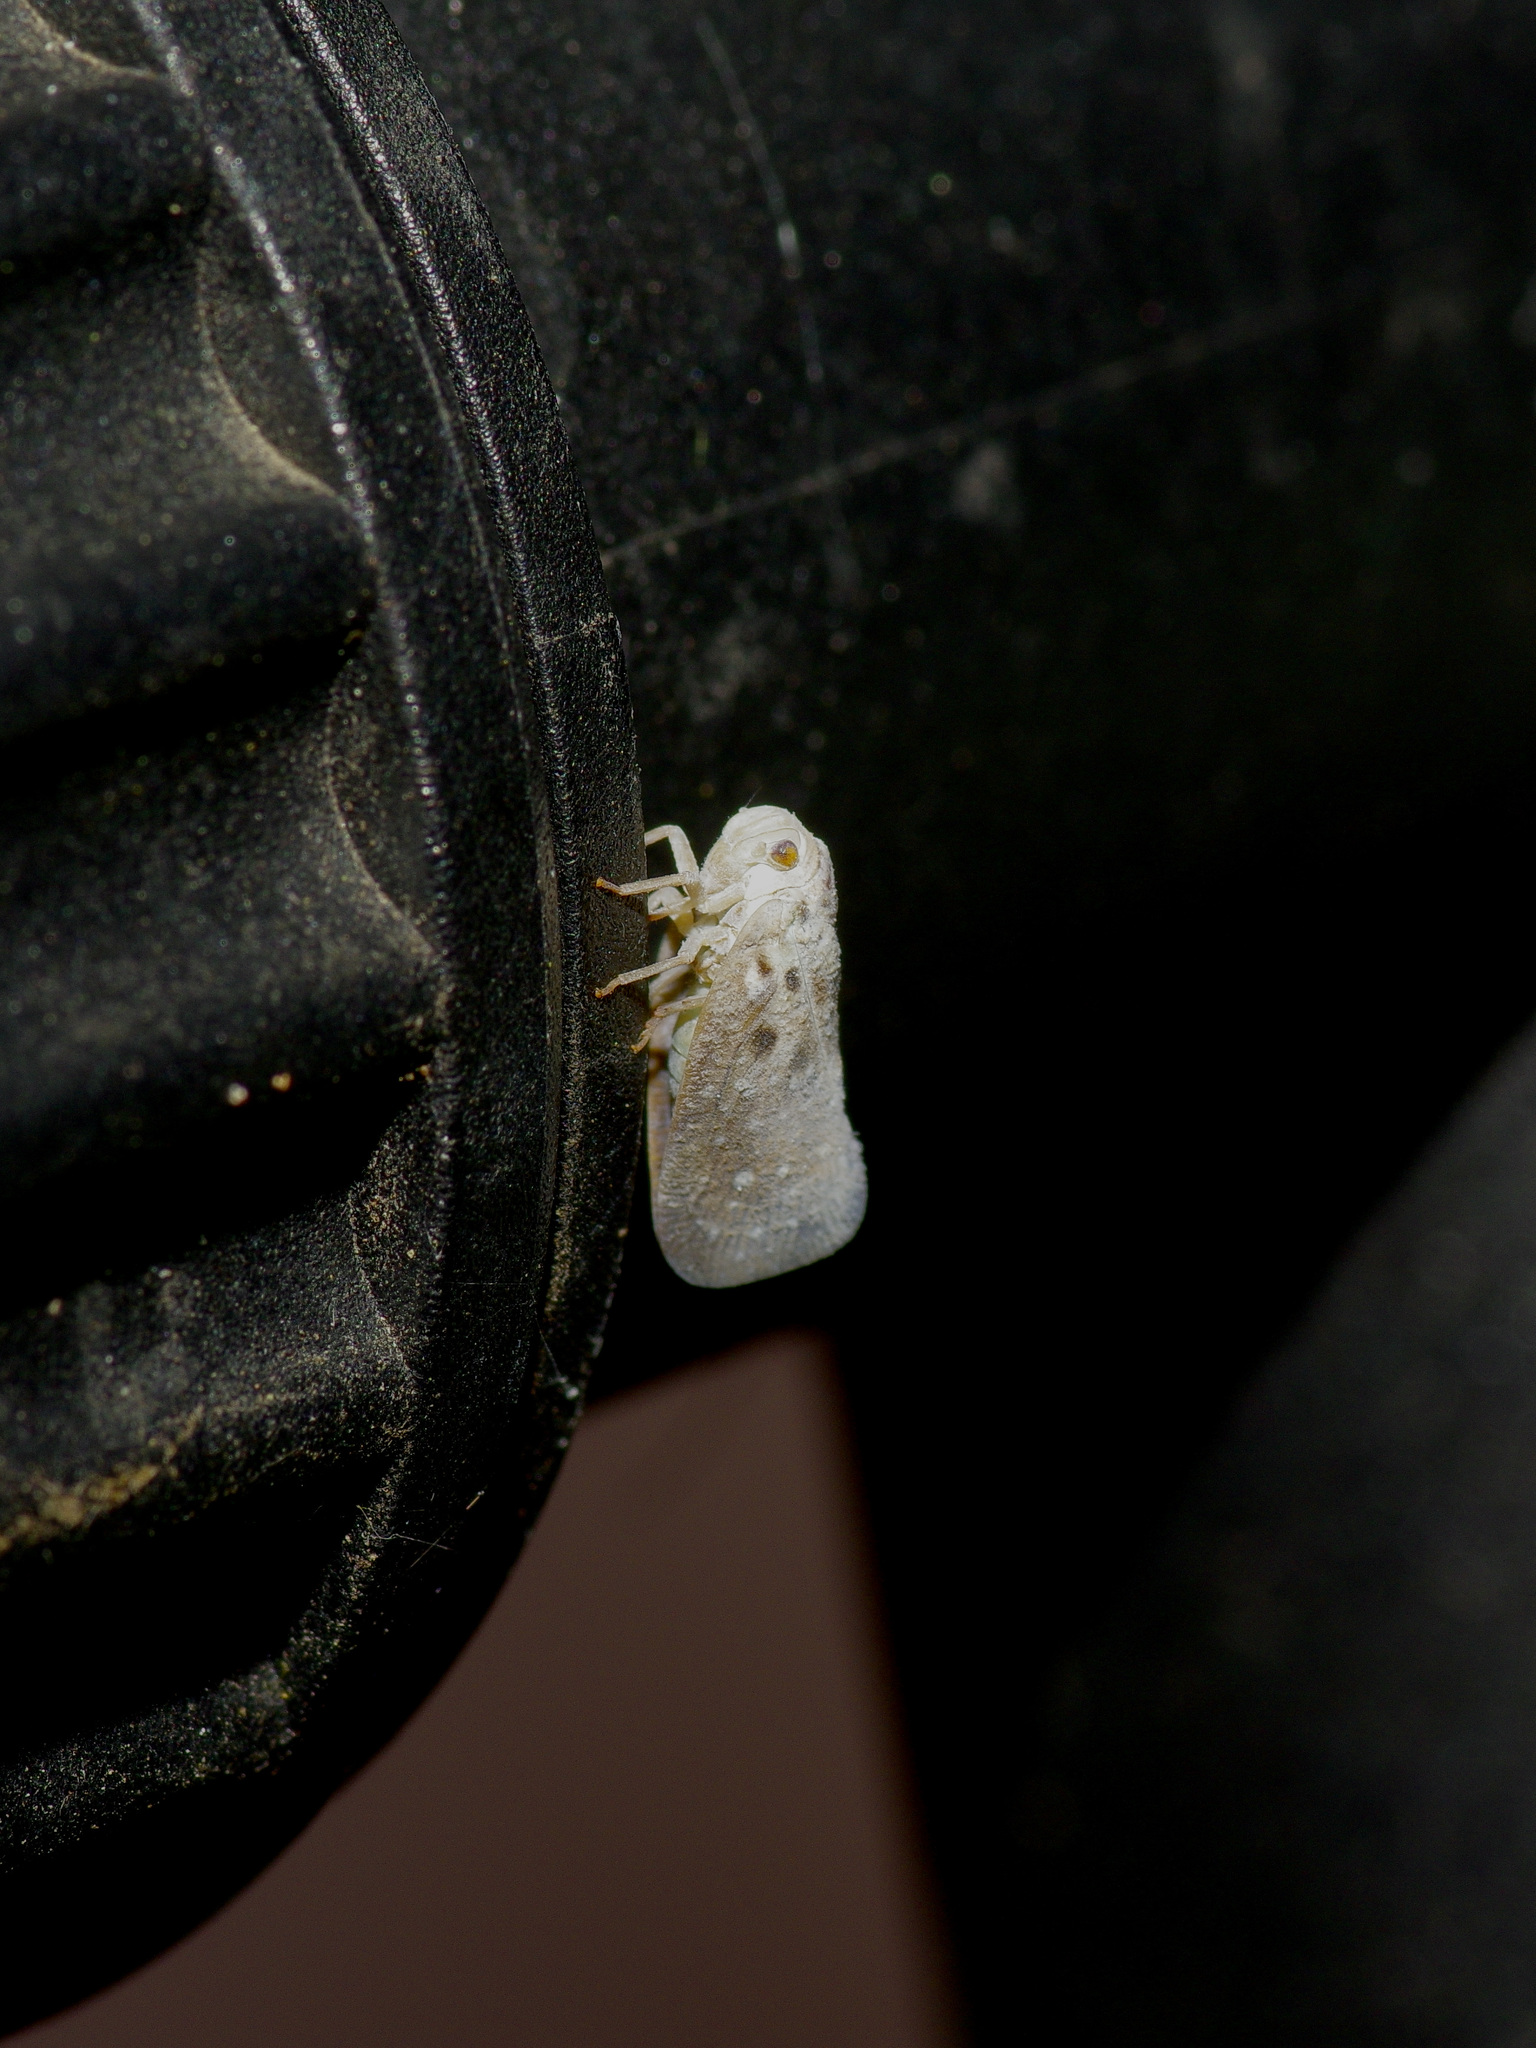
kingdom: Animalia
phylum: Arthropoda
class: Insecta
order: Hemiptera
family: Flatidae
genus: Metcalfa
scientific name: Metcalfa pruinosa
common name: Citrus flatid planthopper
